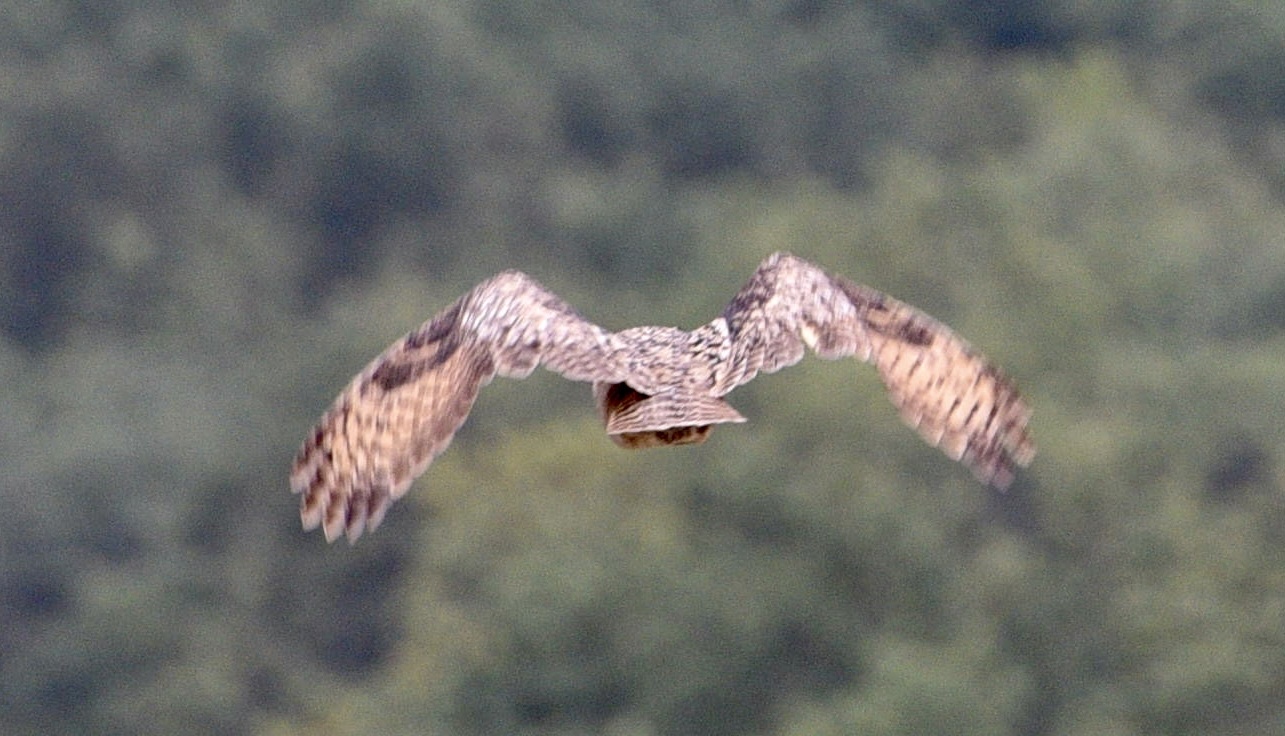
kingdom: Animalia
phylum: Chordata
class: Aves
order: Strigiformes
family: Strigidae
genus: Bubo
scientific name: Bubo bubo
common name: Eurasian eagle-owl
